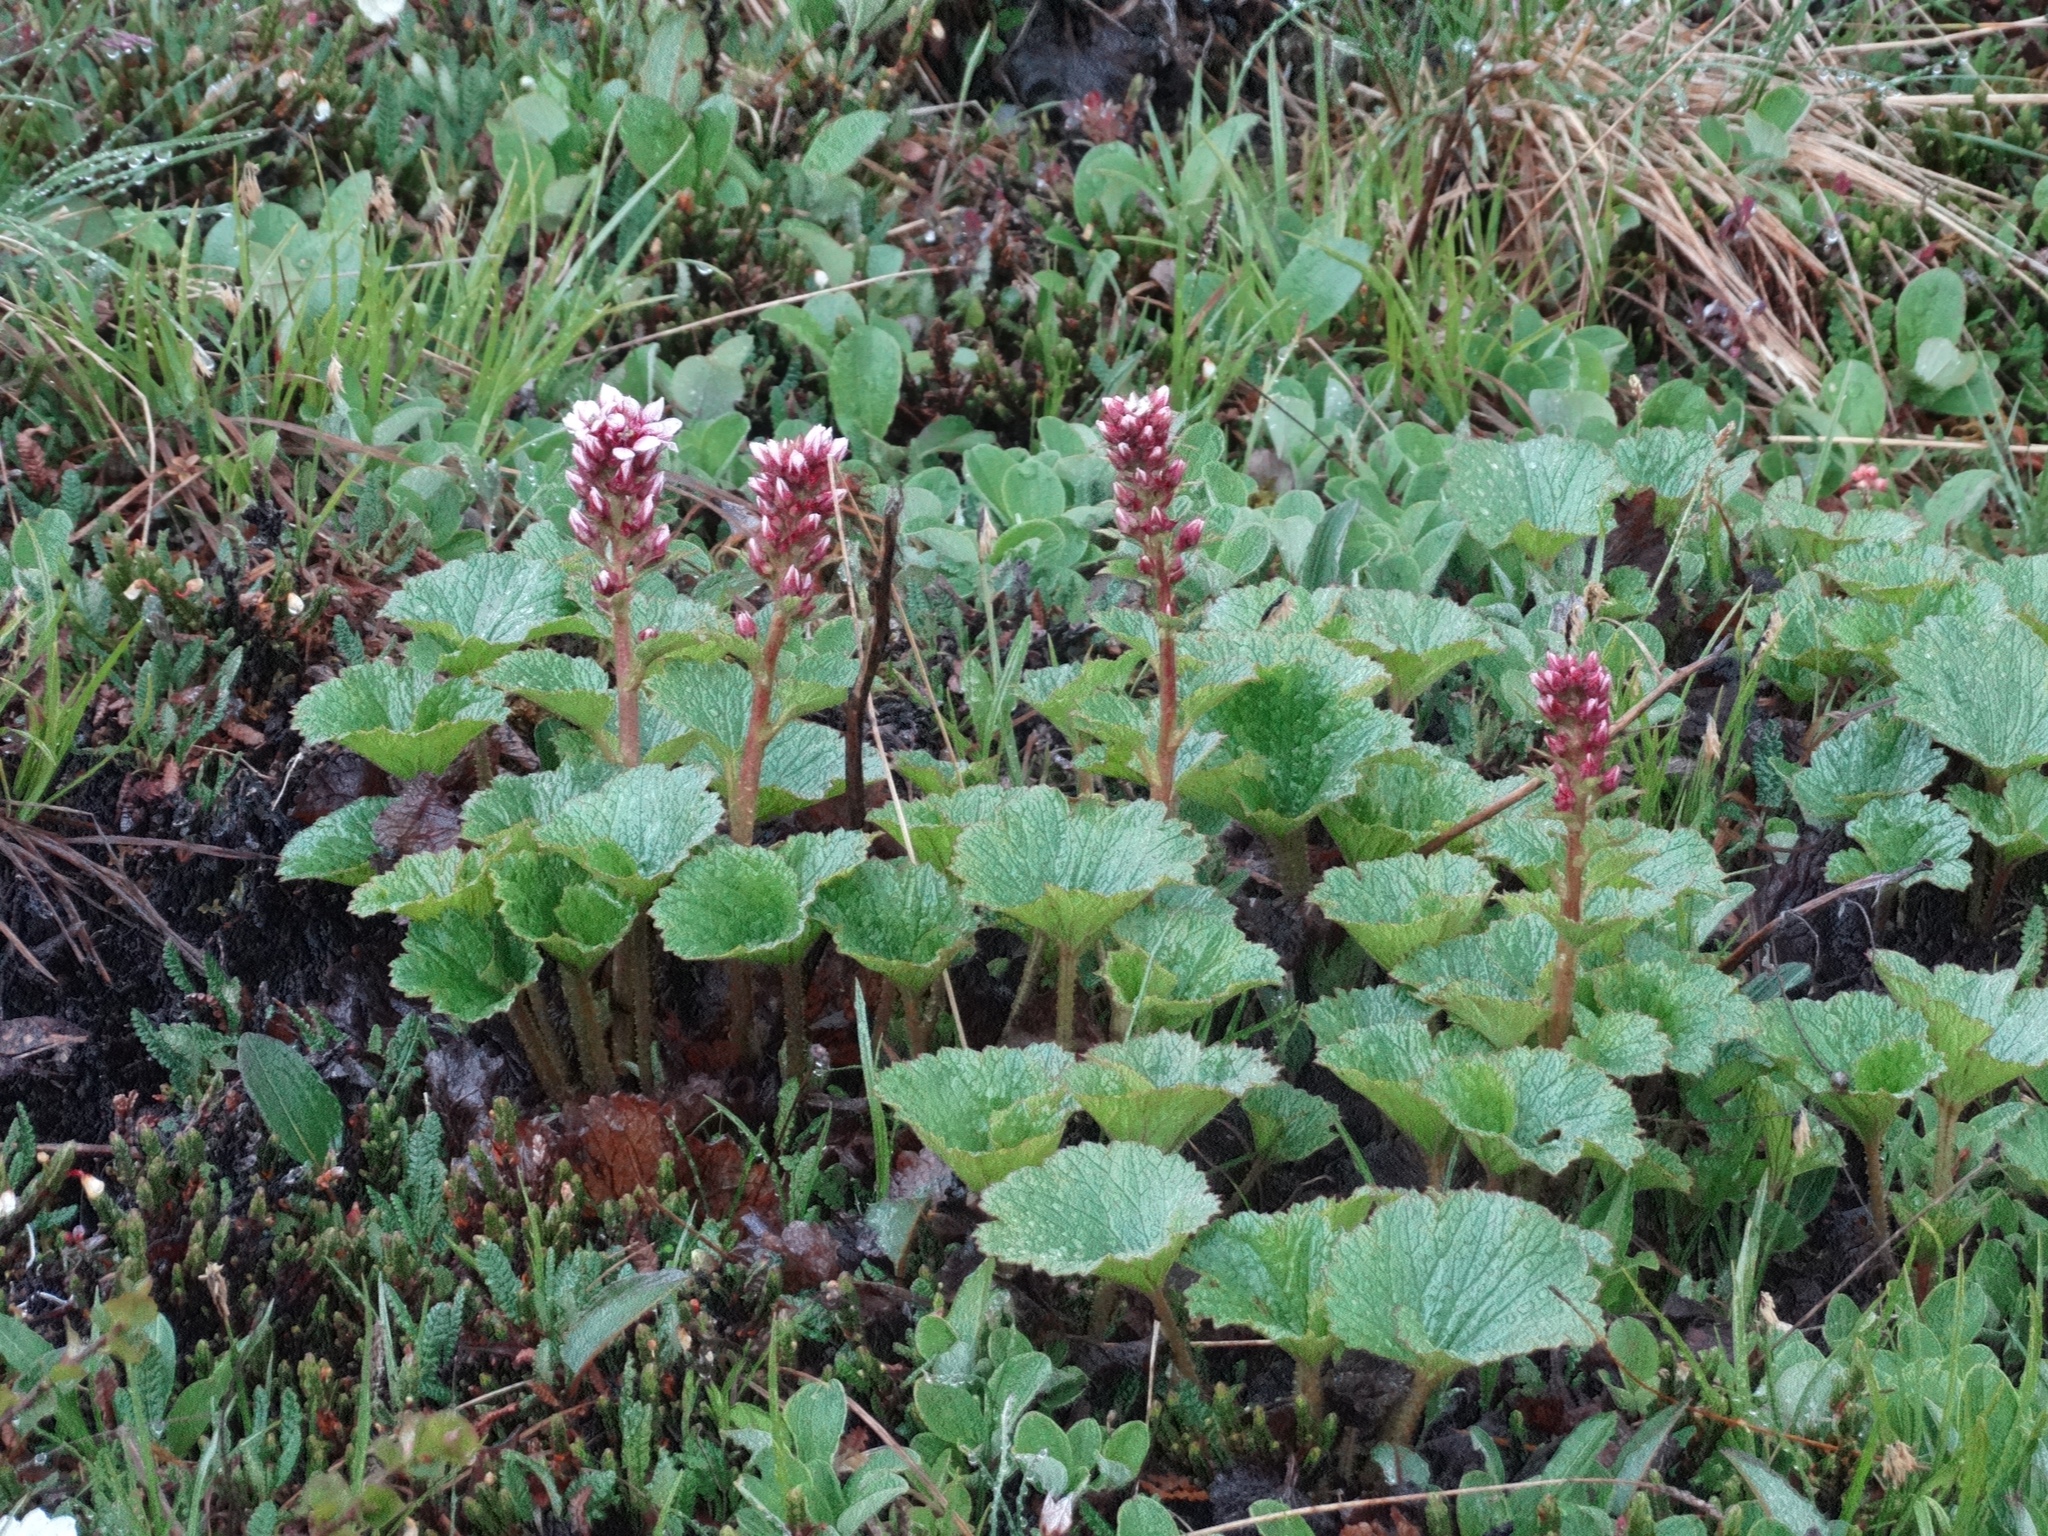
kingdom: Plantae
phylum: Tracheophyta
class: Magnoliopsida
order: Saxifragales
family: Saxifragaceae
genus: Boykinia
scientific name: Boykinia richardsonii
